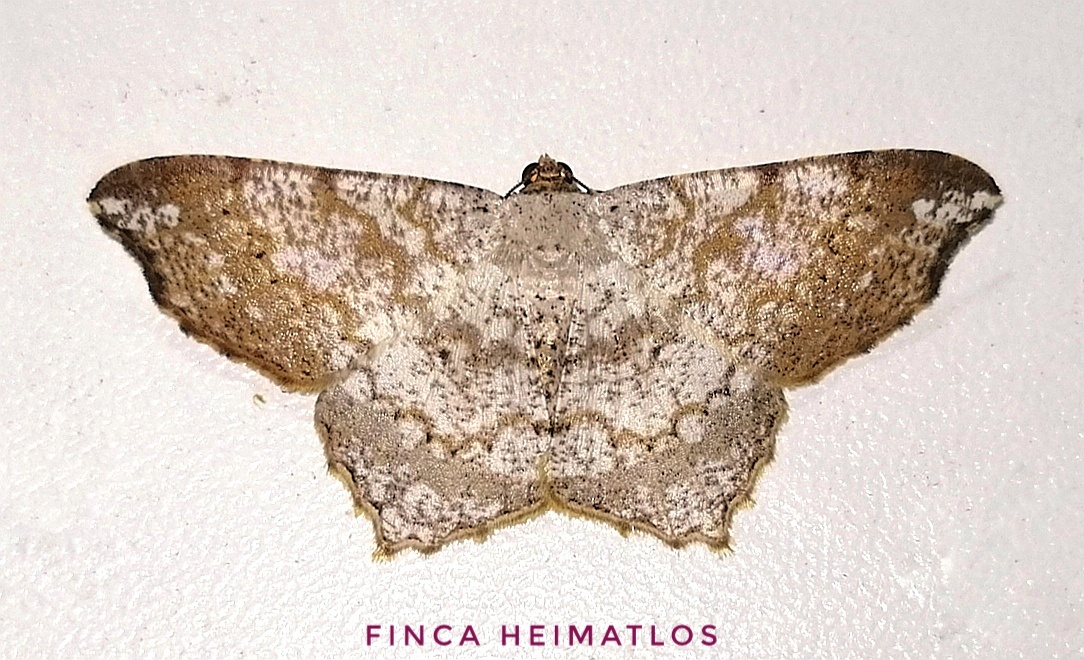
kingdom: Animalia
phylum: Arthropoda
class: Insecta
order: Lepidoptera
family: Geometridae
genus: Macaria
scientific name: Macaria delia
